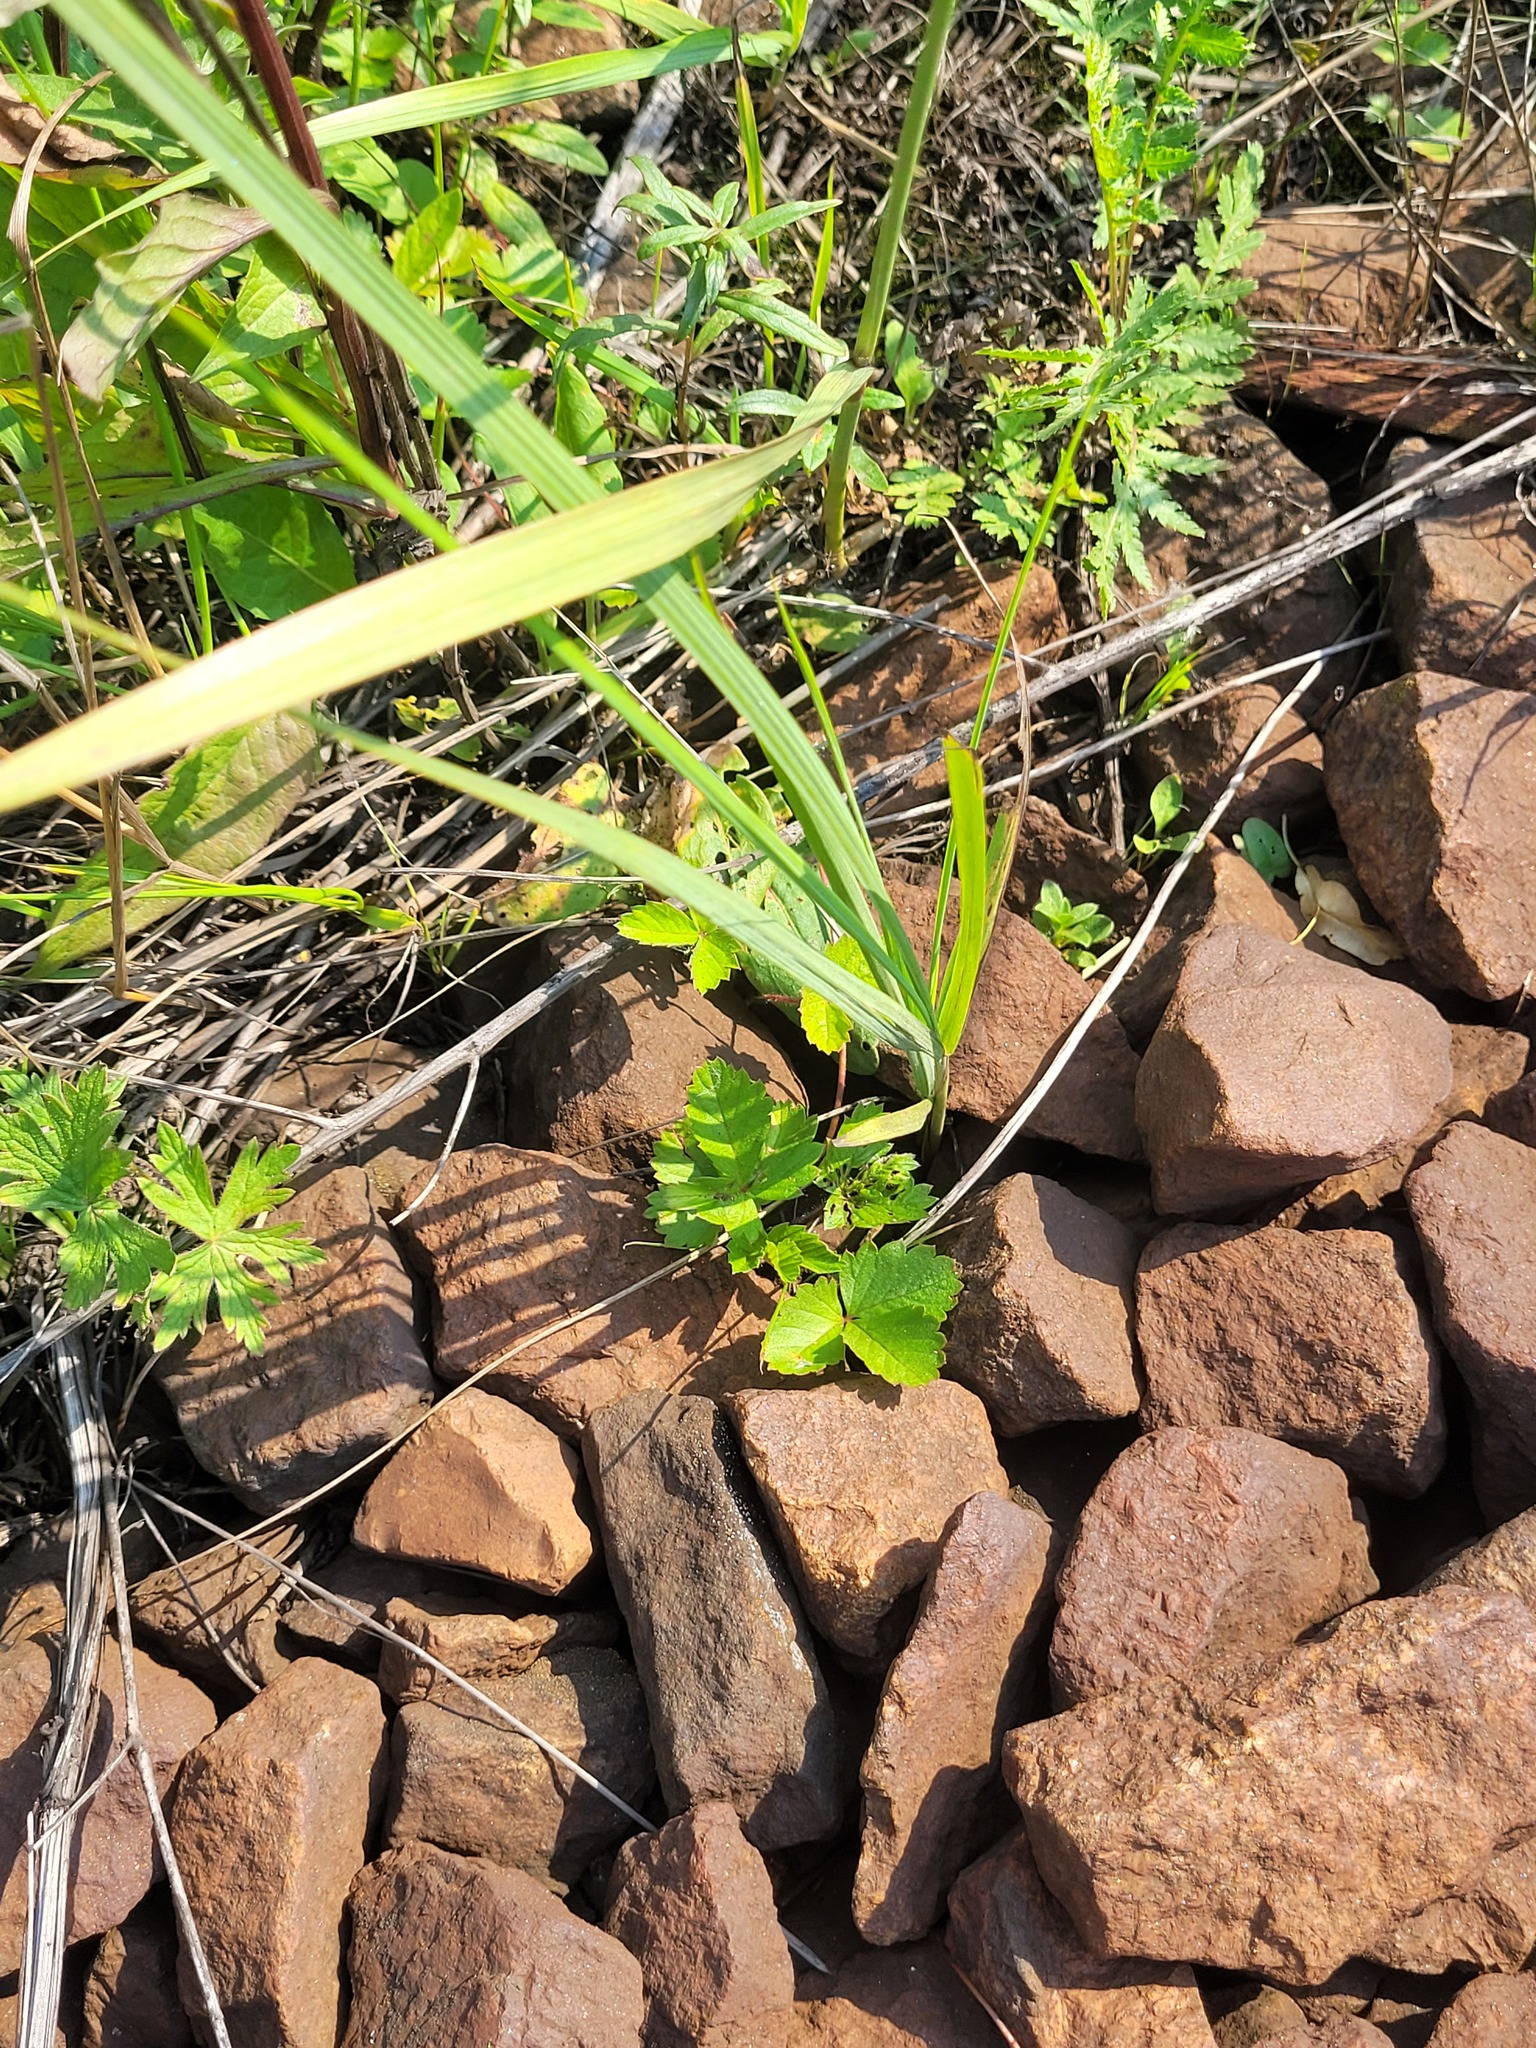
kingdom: Plantae
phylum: Tracheophyta
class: Magnoliopsida
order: Rosales
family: Rosaceae
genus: Fragaria
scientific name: Fragaria vesca
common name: Wild strawberry
